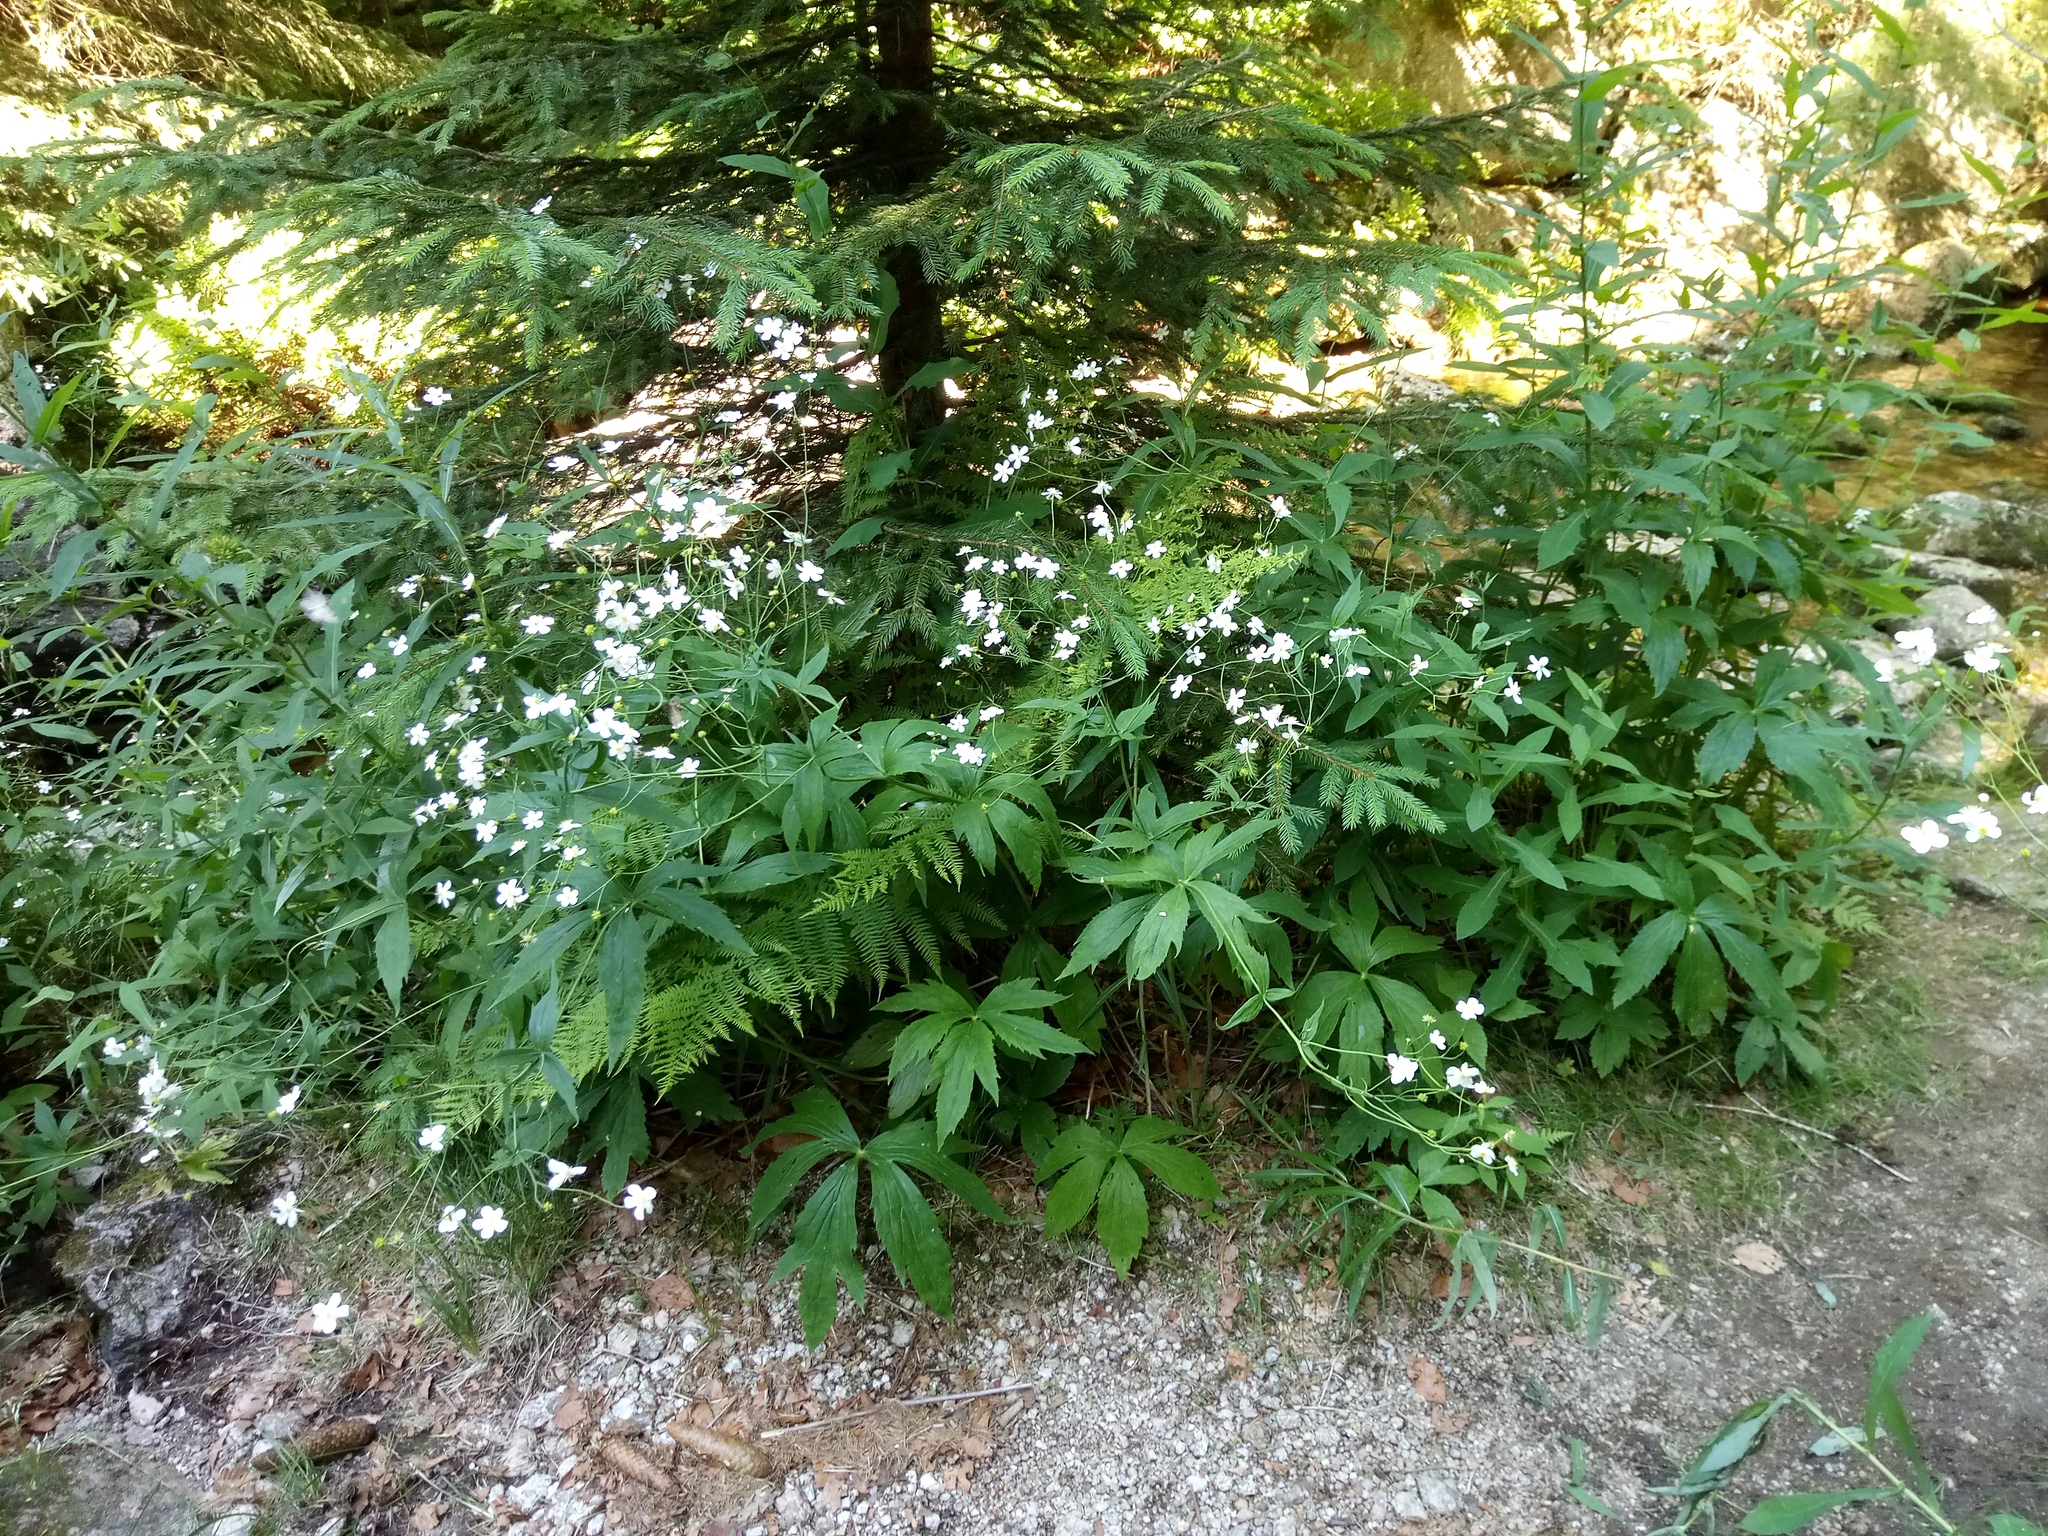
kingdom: Plantae
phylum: Tracheophyta
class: Magnoliopsida
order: Ranunculales
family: Ranunculaceae
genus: Ranunculus
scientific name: Ranunculus platanifolius
